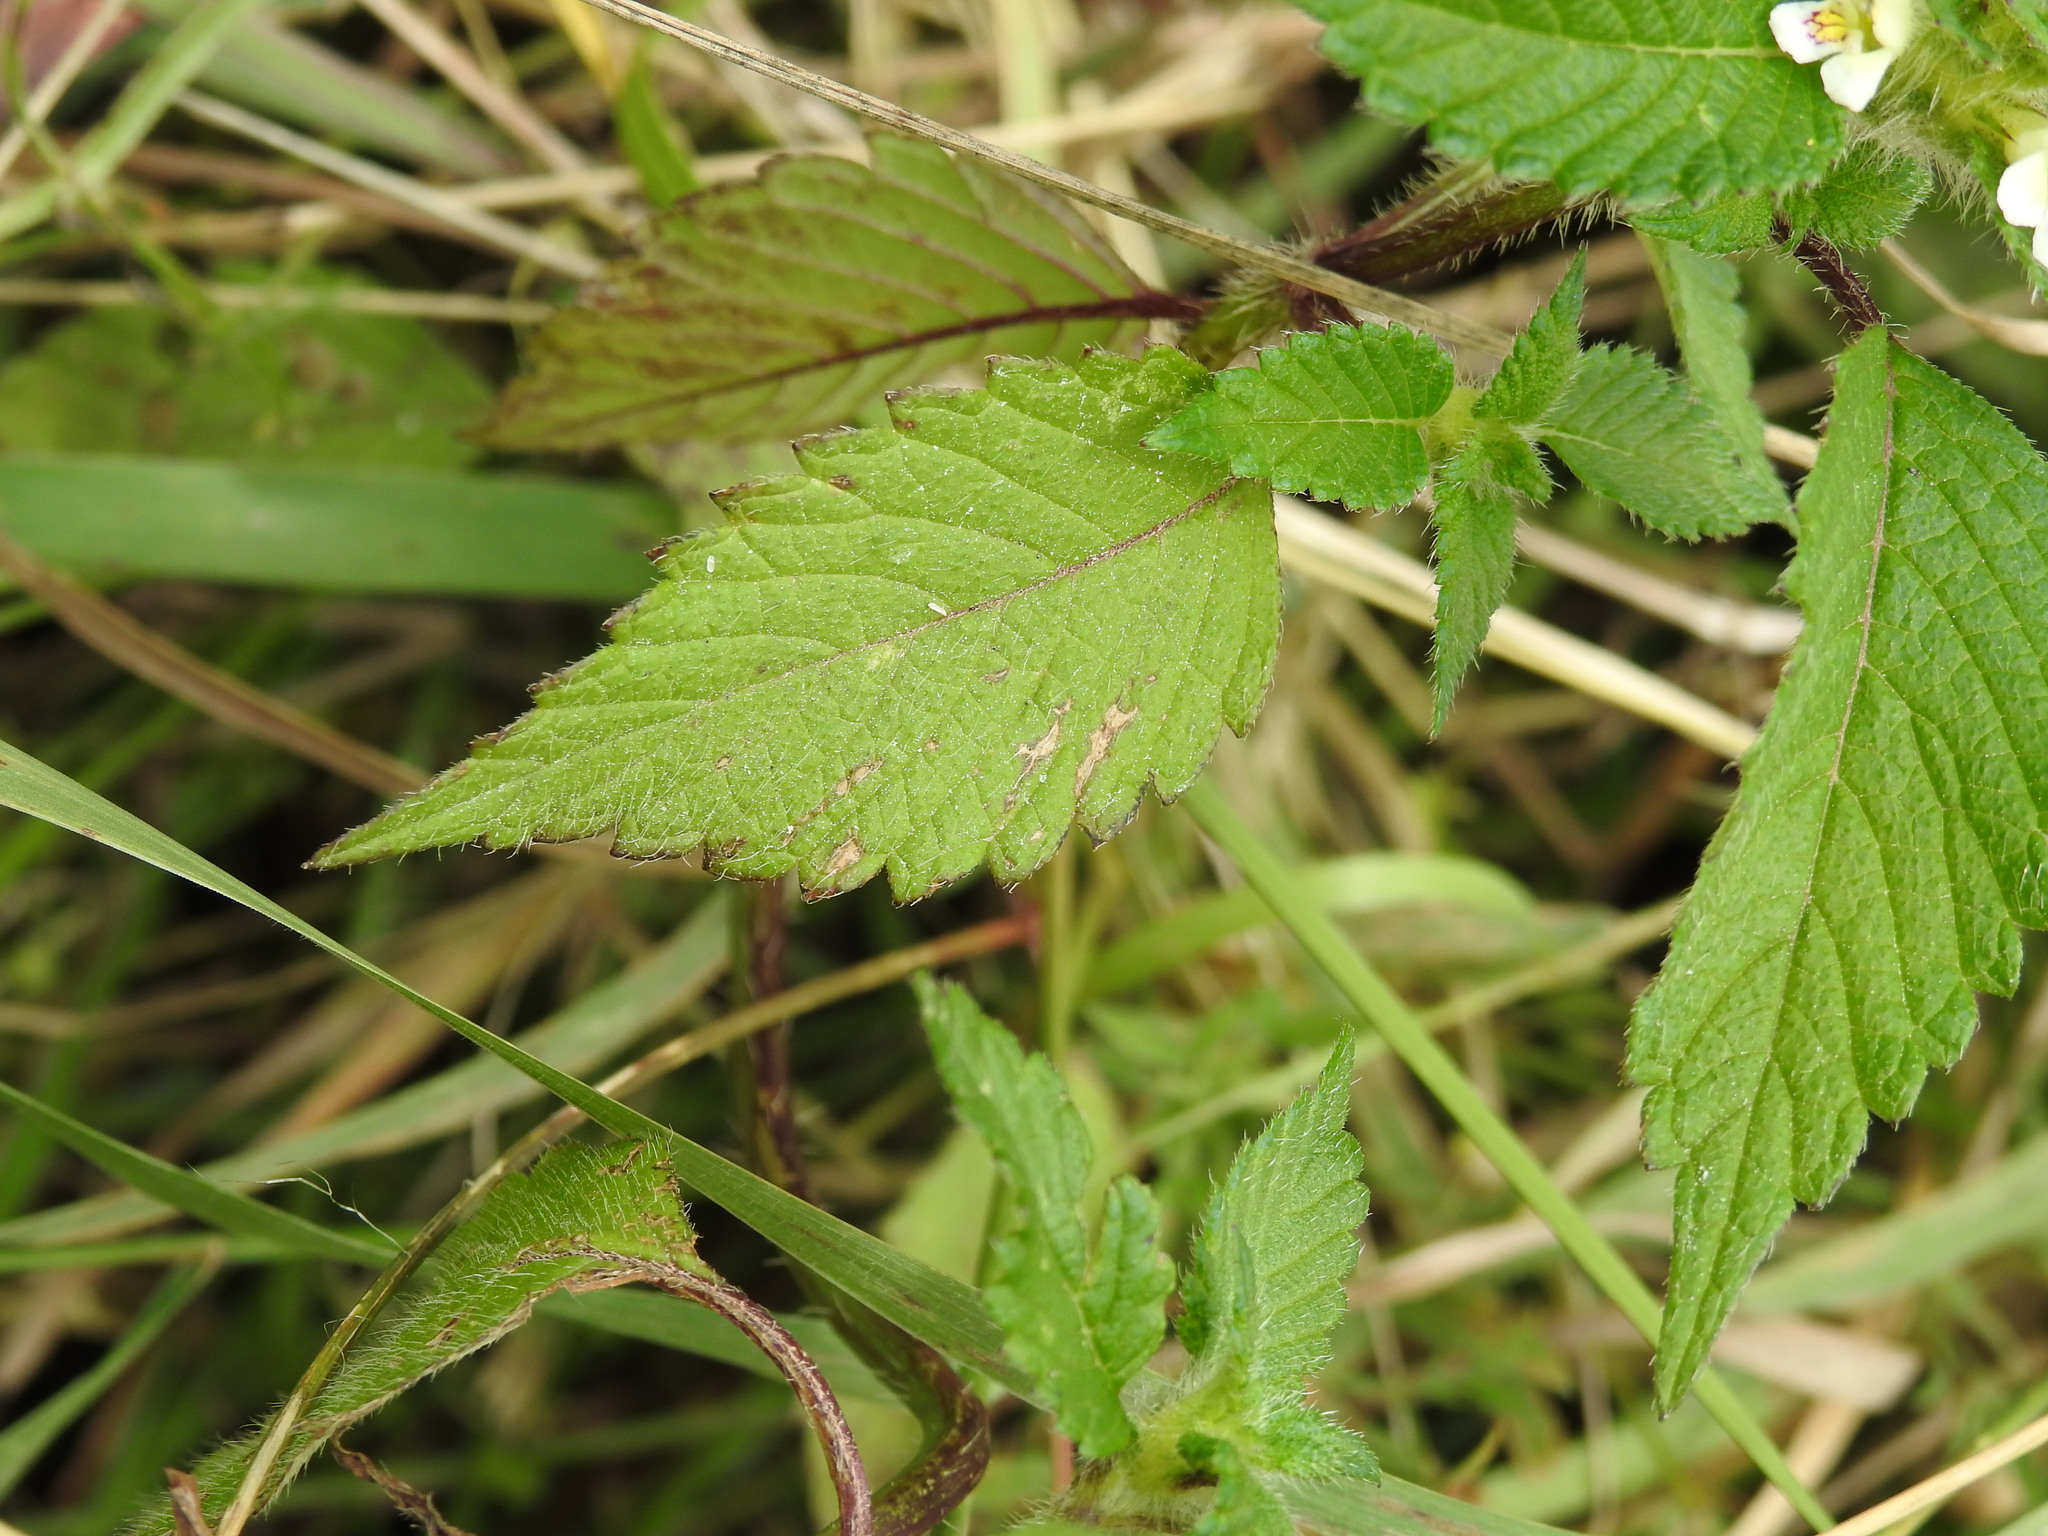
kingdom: Plantae
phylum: Tracheophyta
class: Magnoliopsida
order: Lamiales
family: Lamiaceae
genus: Galeopsis
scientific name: Galeopsis tetrahit
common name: Common hemp-nettle
